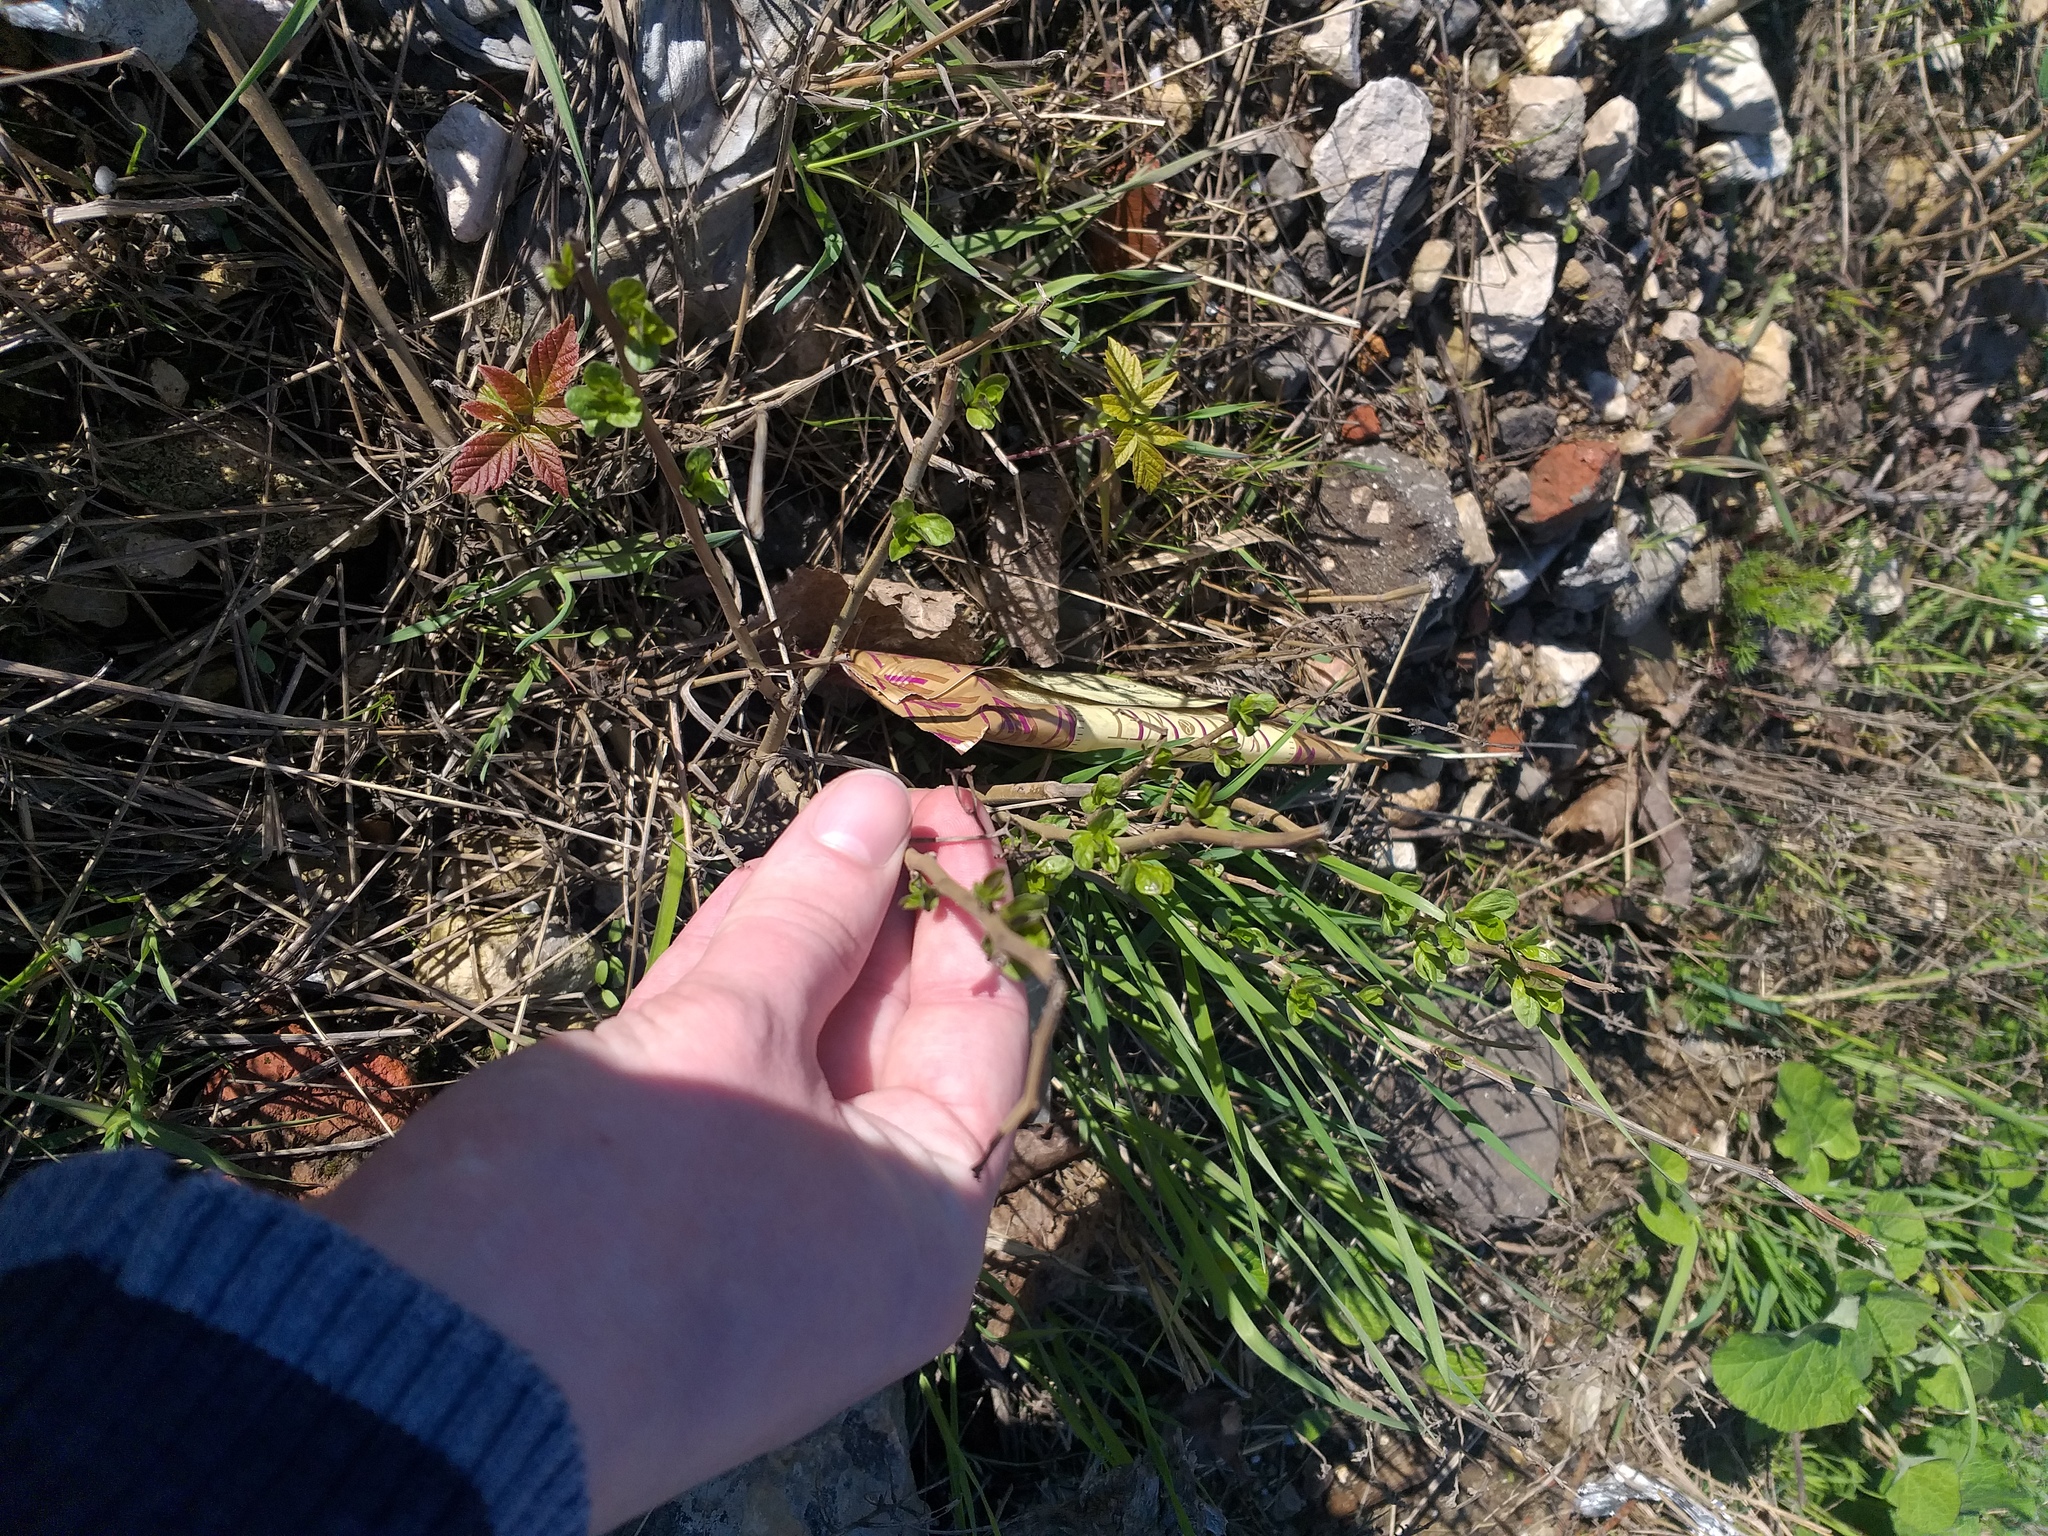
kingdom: Plantae
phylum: Tracheophyta
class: Magnoliopsida
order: Solanales
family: Solanaceae
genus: Solanum
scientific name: Solanum dulcamara
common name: Climbing nightshade
